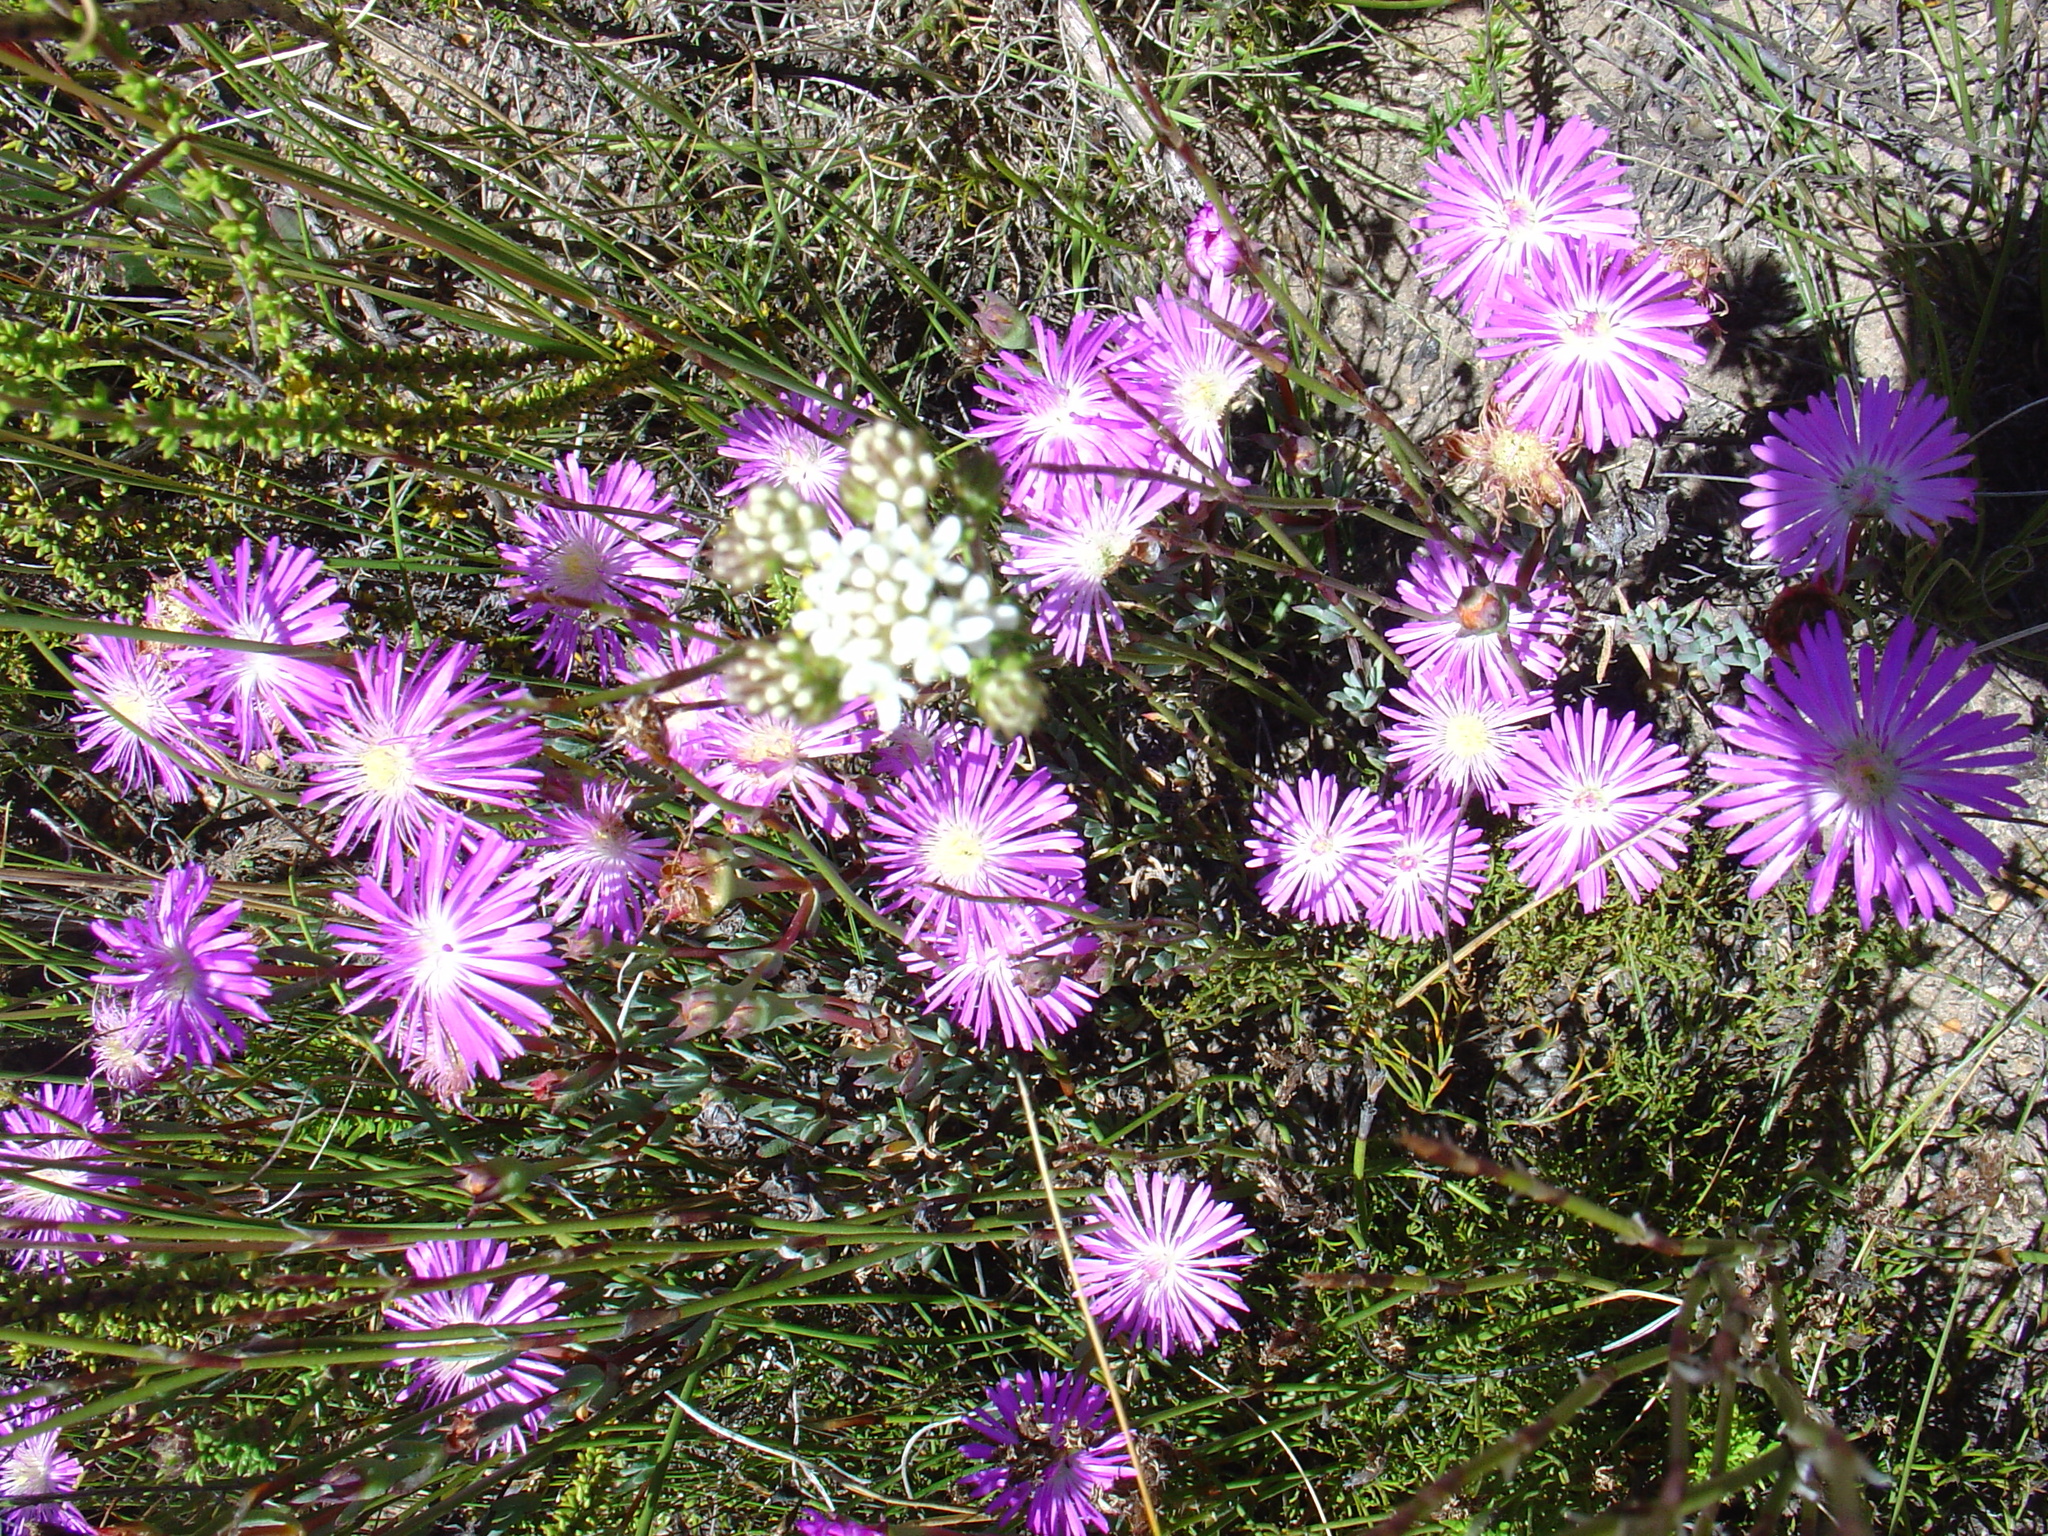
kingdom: Plantae
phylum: Tracheophyta
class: Magnoliopsida
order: Caryophyllales
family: Aizoaceae
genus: Lampranthus
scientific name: Lampranthus swartbergensis
